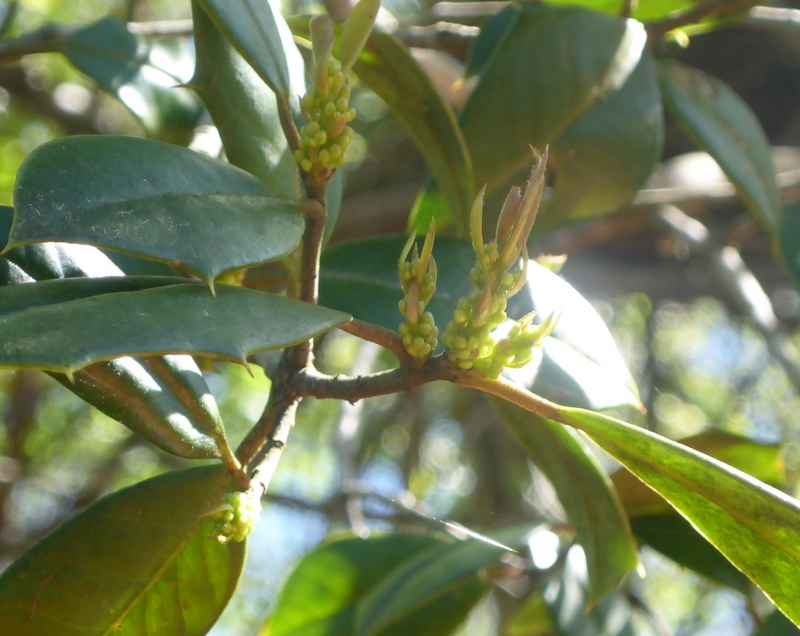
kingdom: Plantae
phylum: Tracheophyta
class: Magnoliopsida
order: Aquifoliales
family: Aquifoliaceae
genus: Ilex
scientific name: Ilex opaca
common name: American holly
